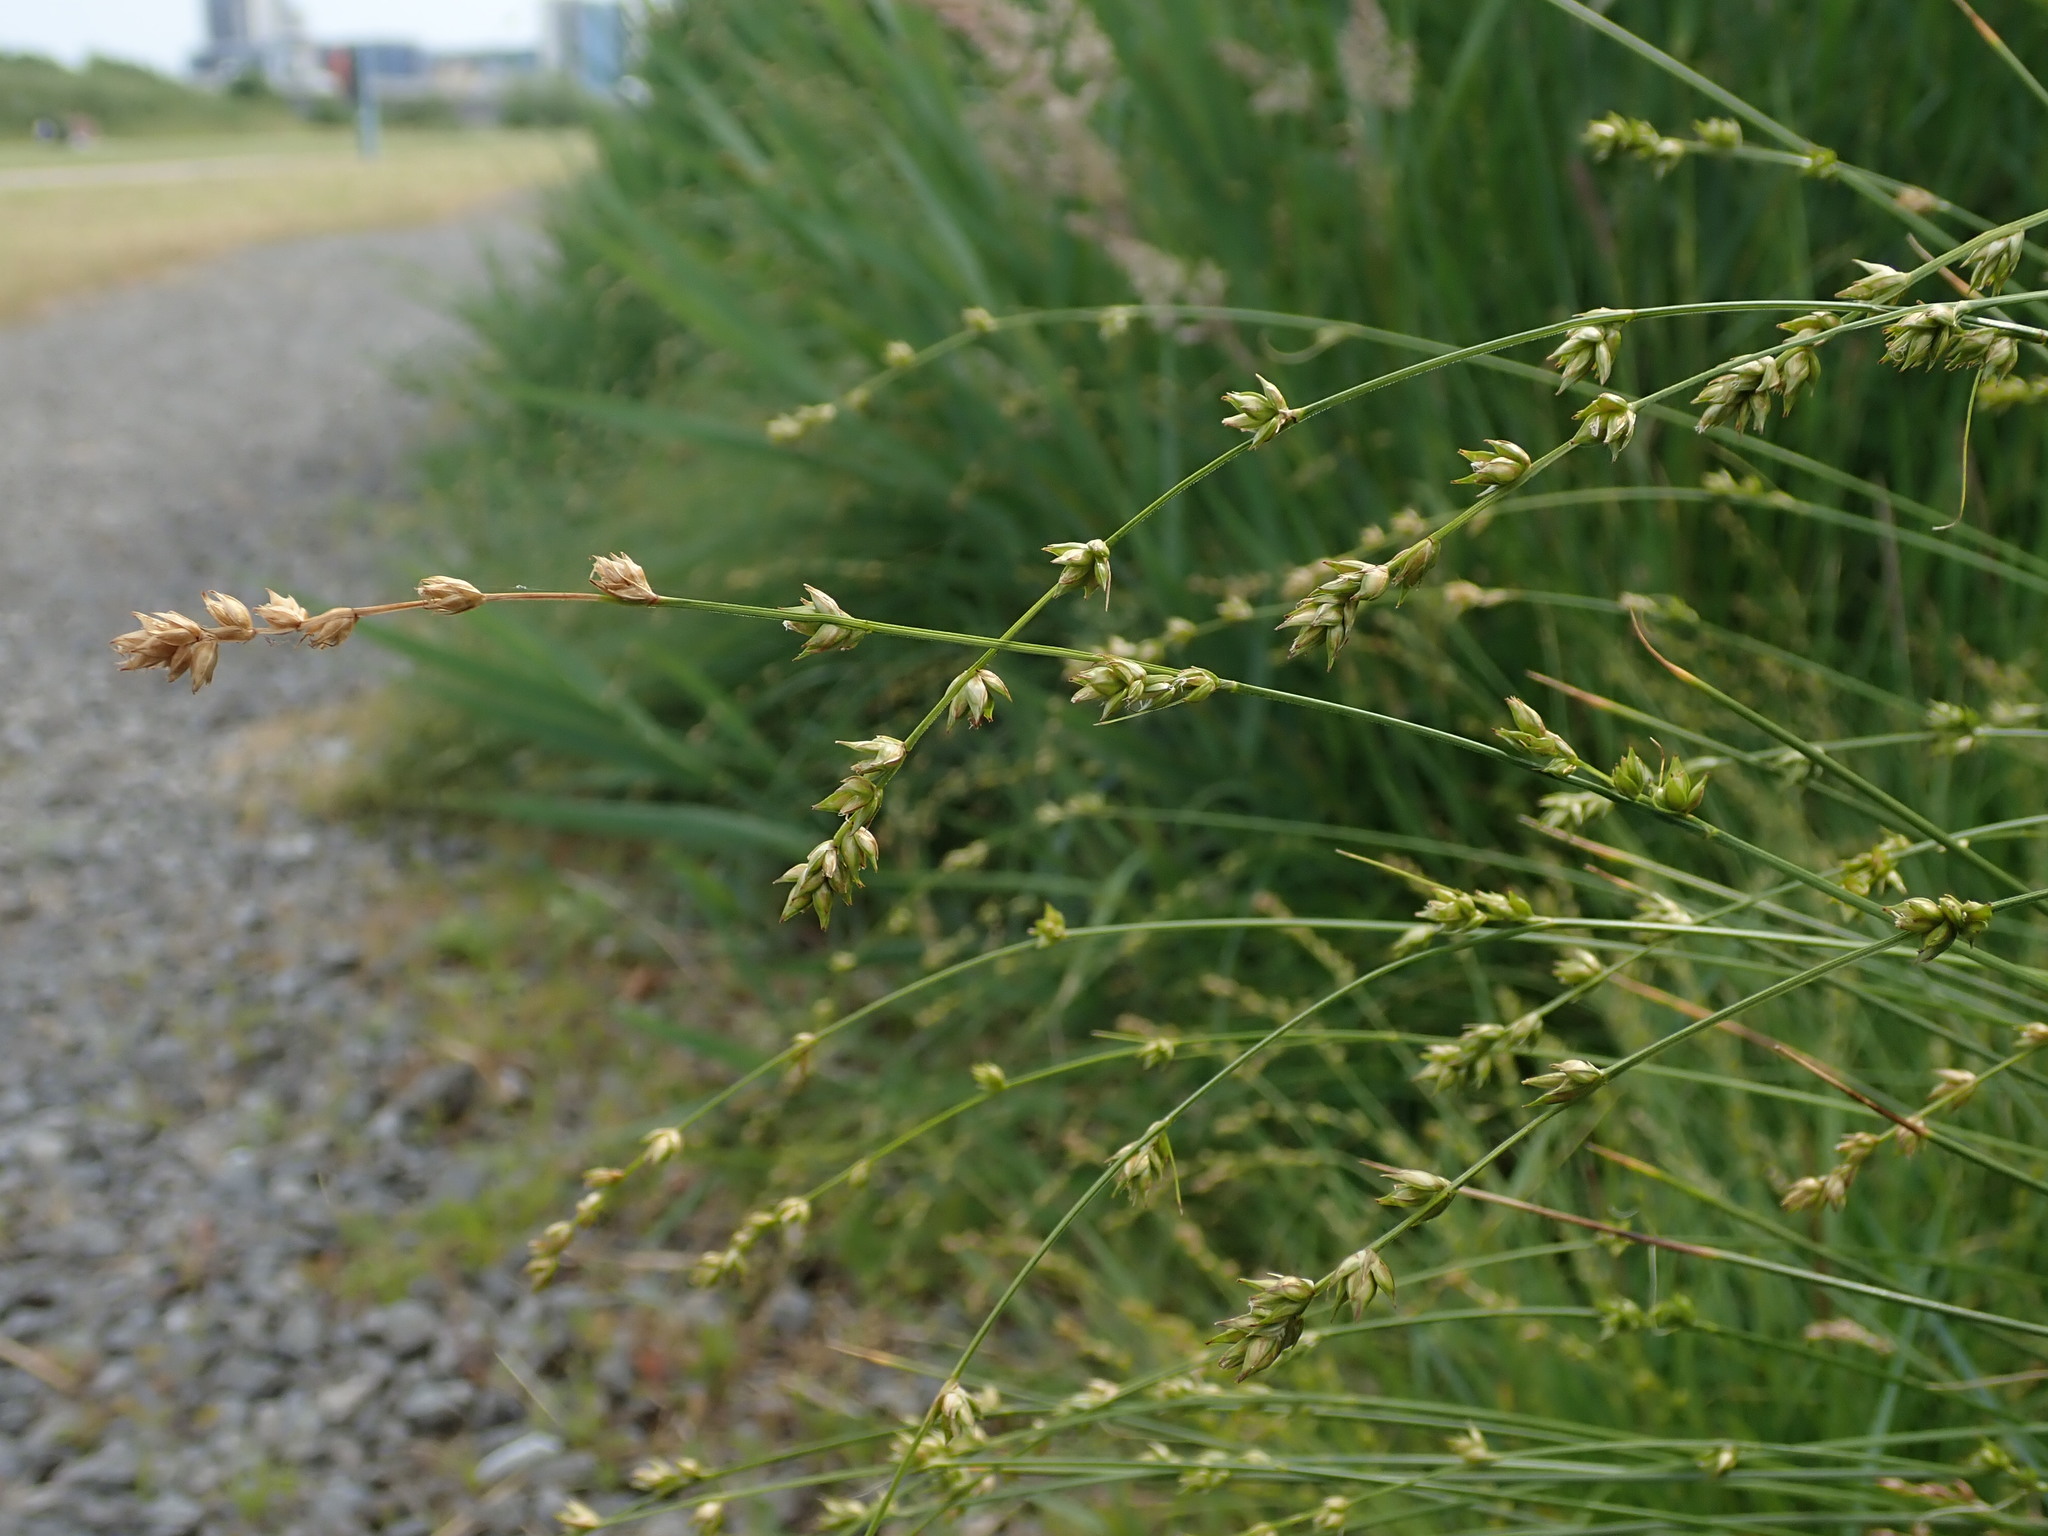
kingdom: Plantae
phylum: Tracheophyta
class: Liliopsida
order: Poales
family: Cyperaceae
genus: Carex
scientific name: Carex divulsa
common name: Grassland sedge
